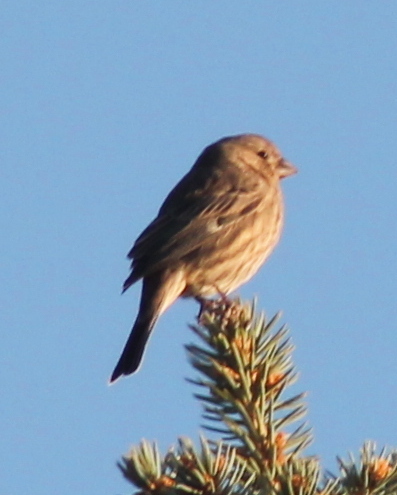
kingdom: Animalia
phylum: Chordata
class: Aves
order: Passeriformes
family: Fringillidae
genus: Haemorhous
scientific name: Haemorhous mexicanus
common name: House finch
